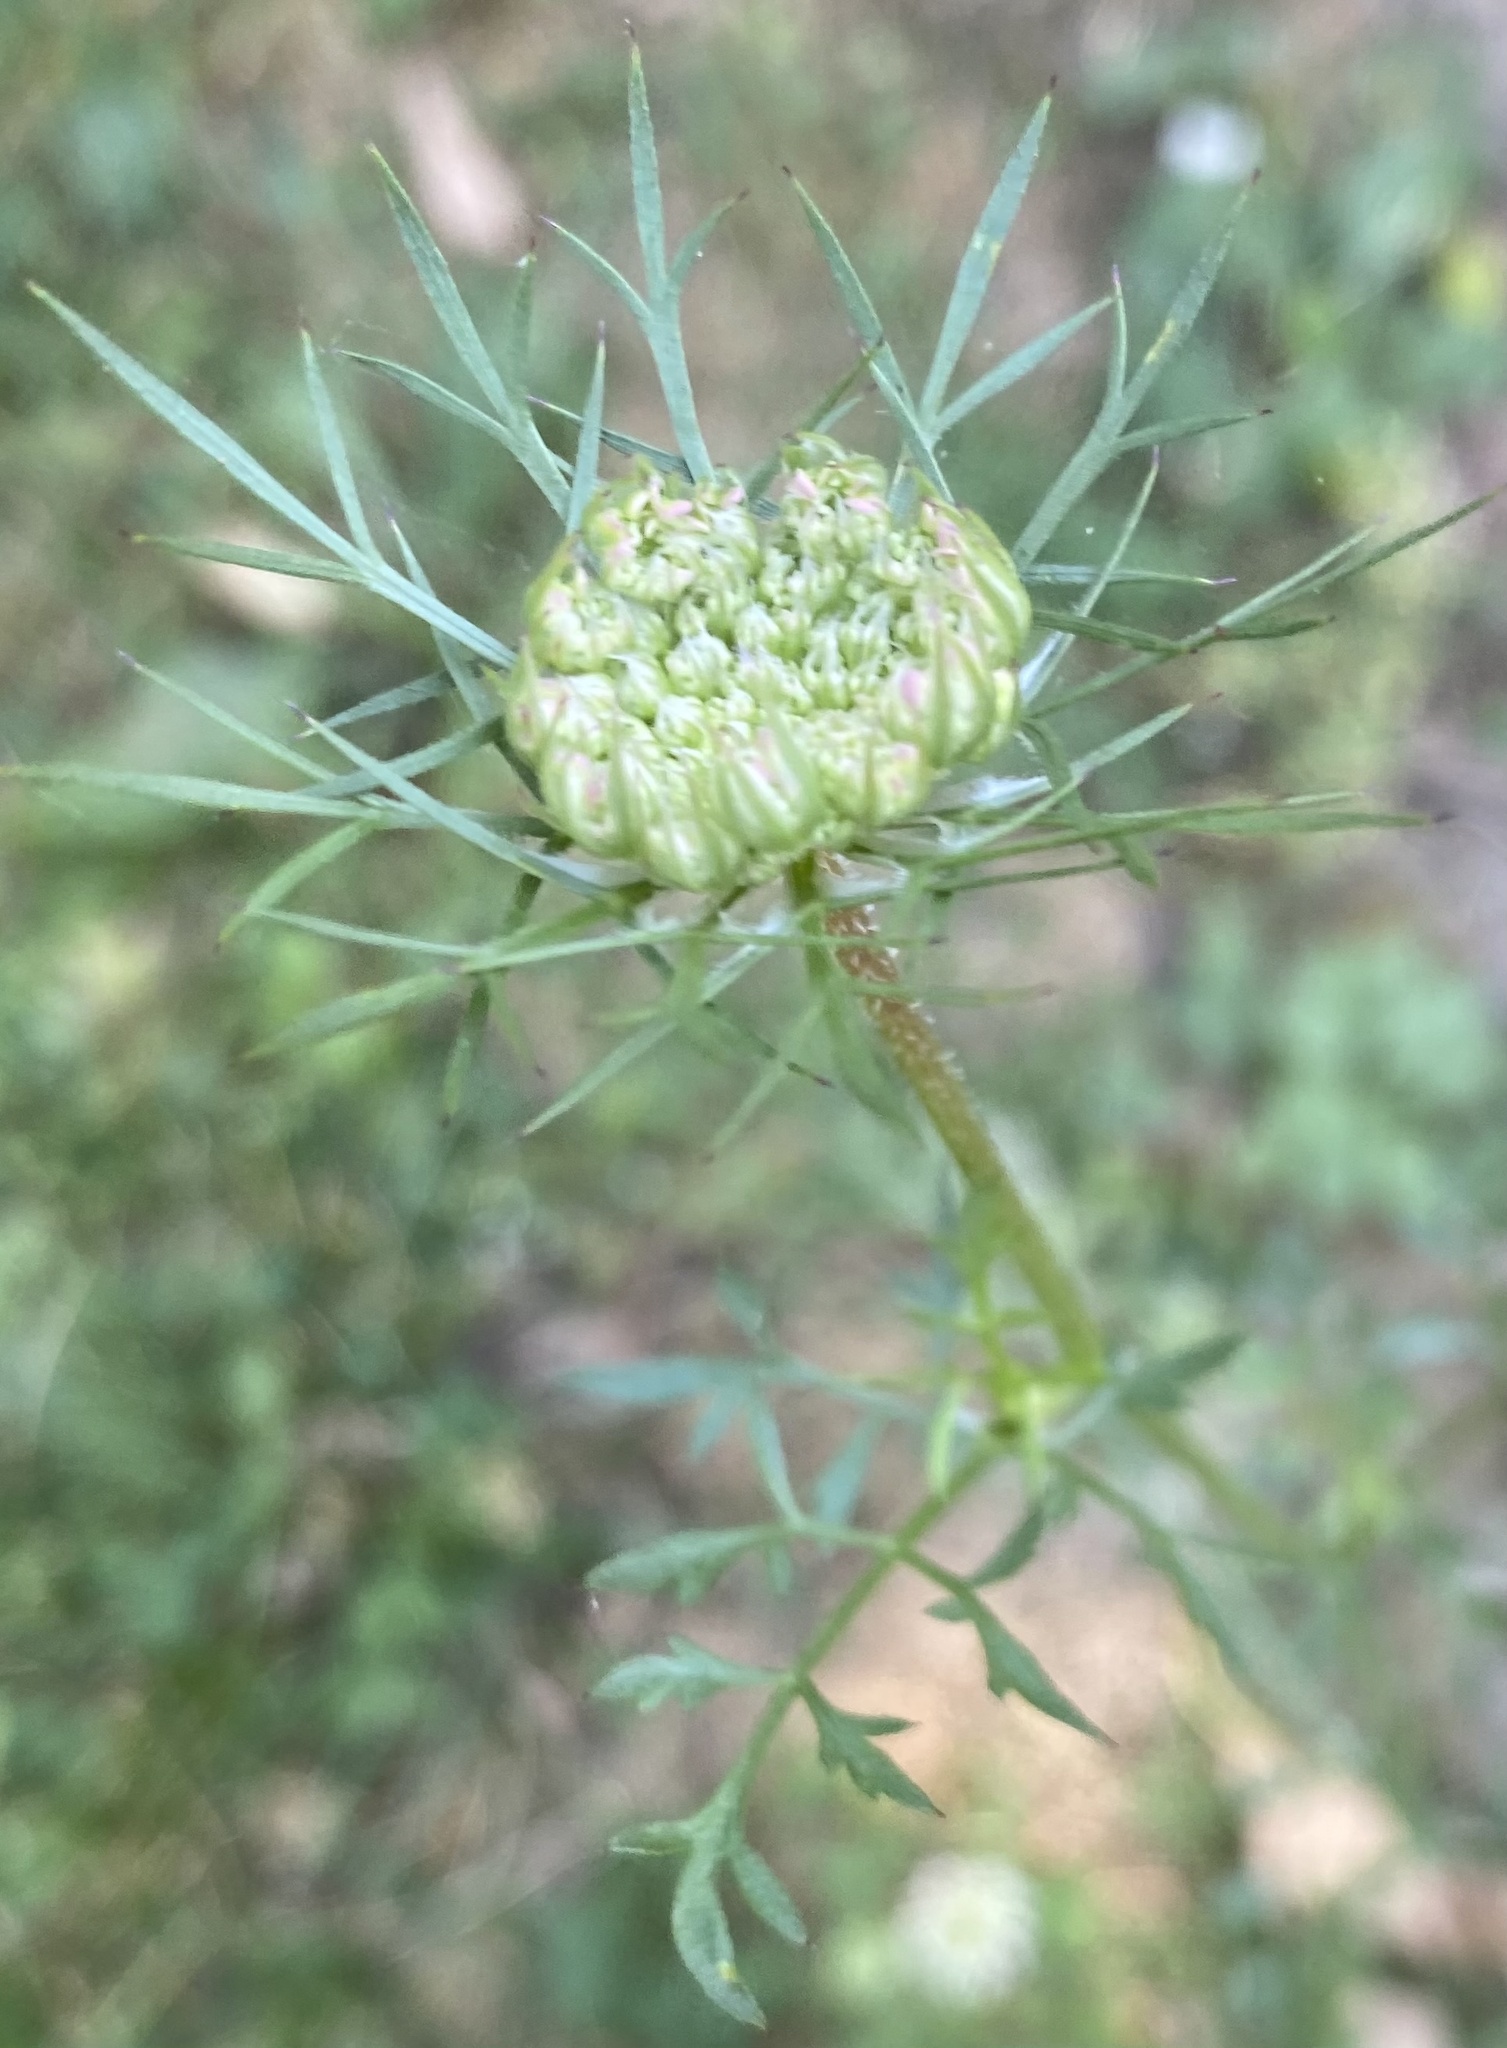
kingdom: Plantae
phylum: Tracheophyta
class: Magnoliopsida
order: Apiales
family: Apiaceae
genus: Daucus
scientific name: Daucus carota
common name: Wild carrot
